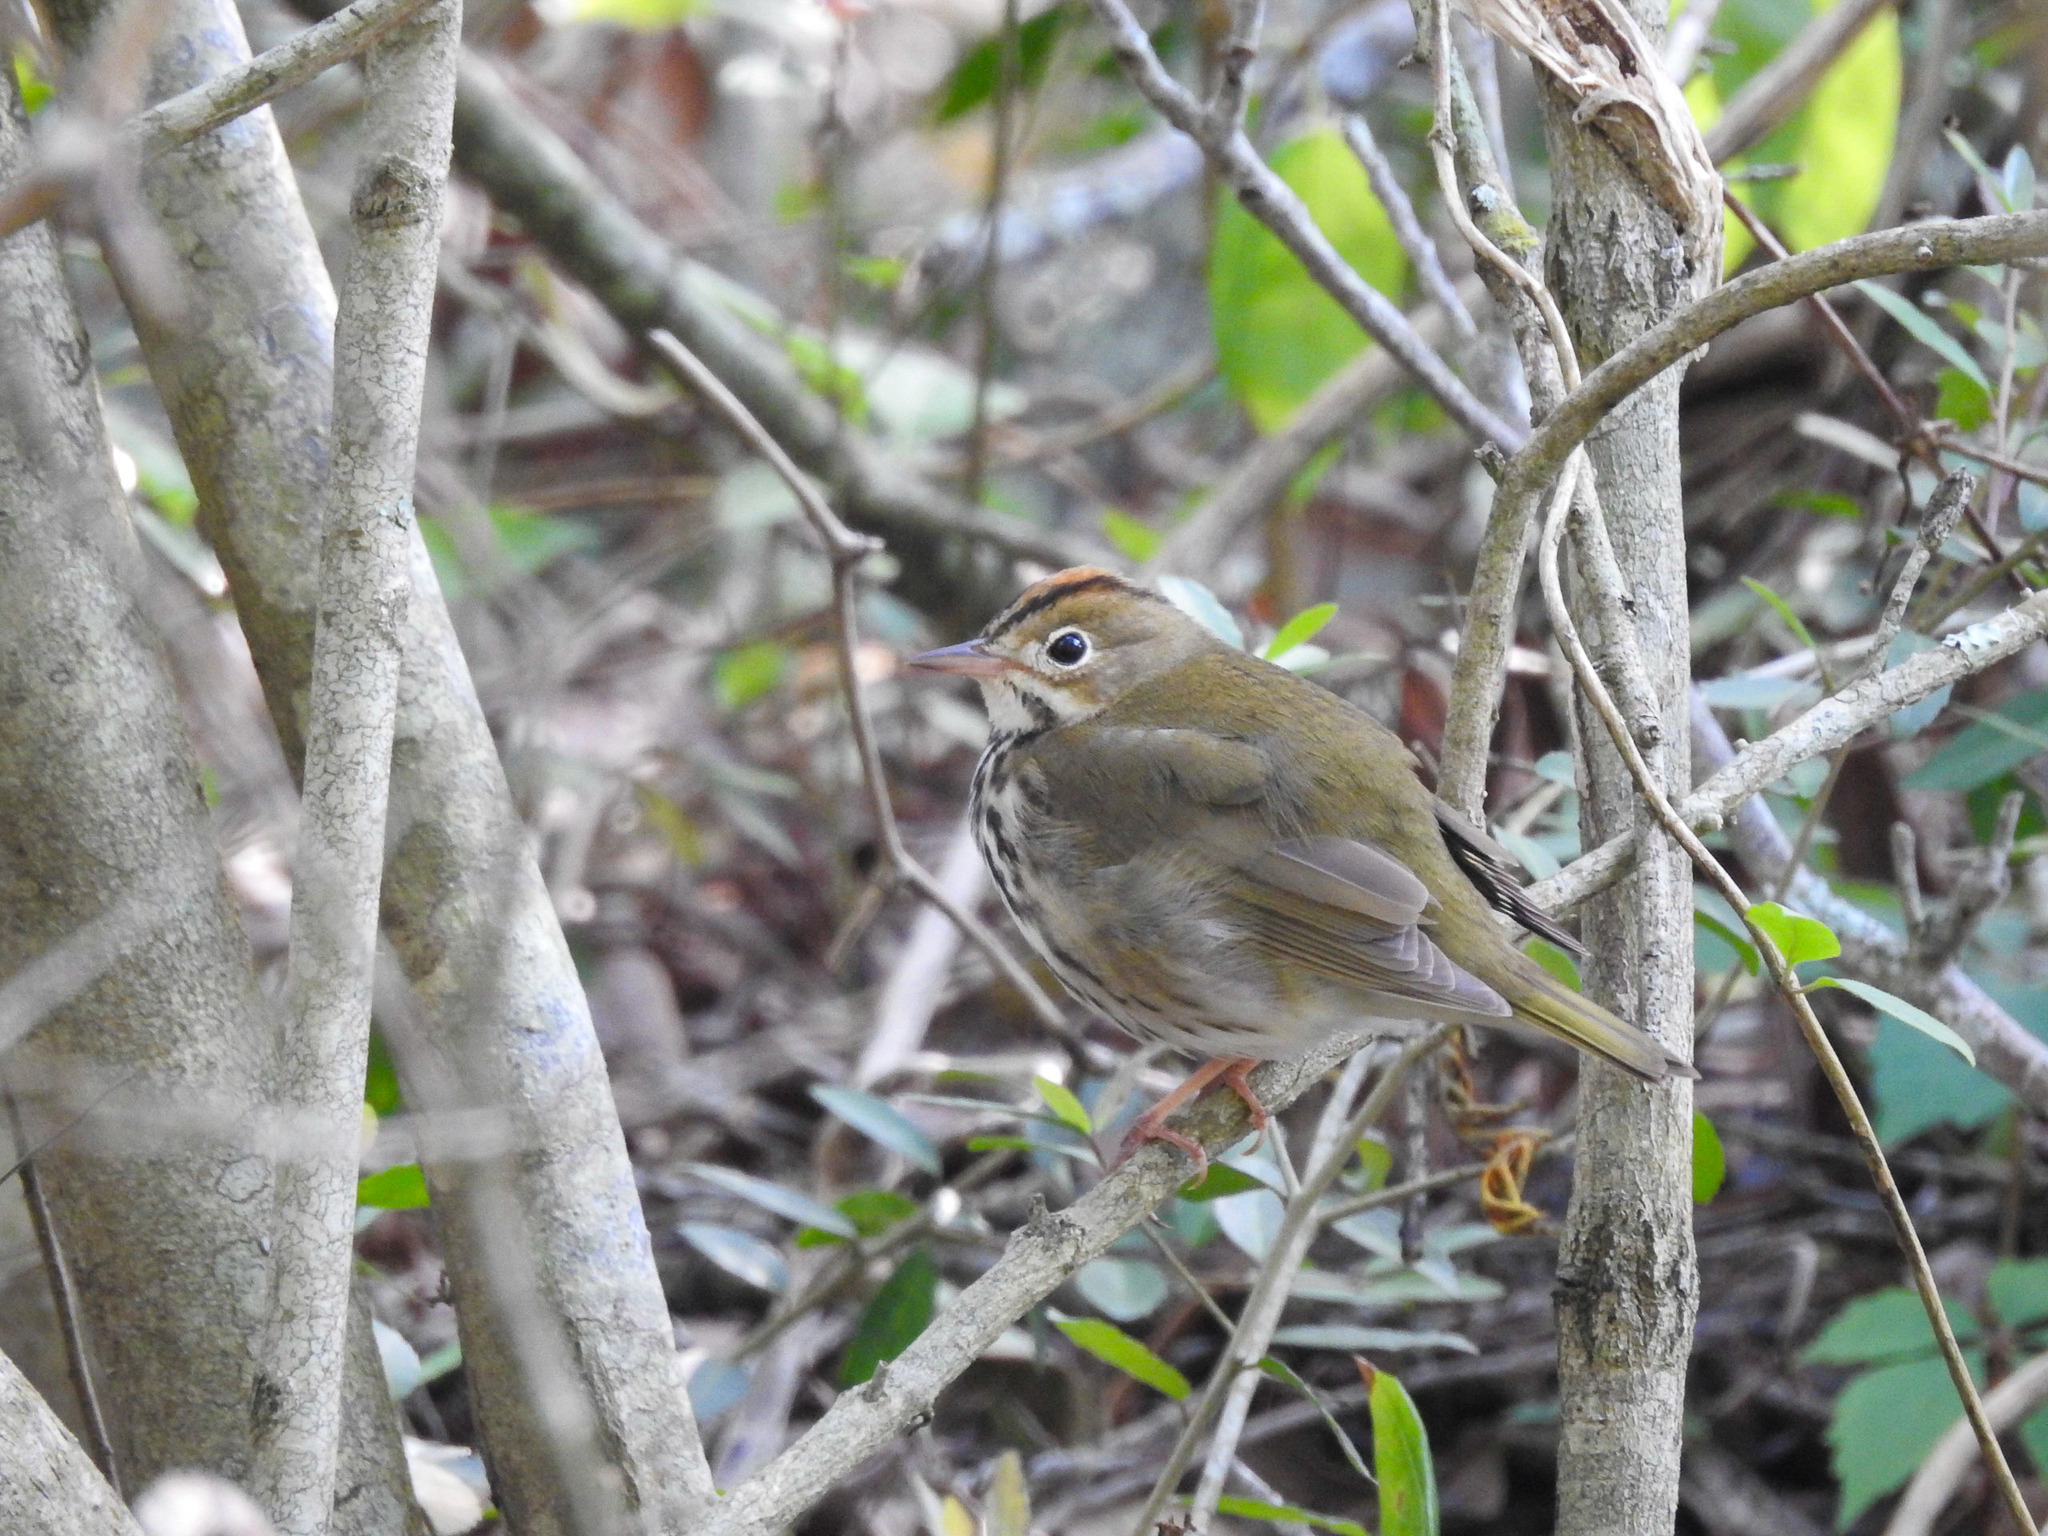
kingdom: Animalia
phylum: Chordata
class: Aves
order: Passeriformes
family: Parulidae
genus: Seiurus
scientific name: Seiurus aurocapilla
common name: Ovenbird
